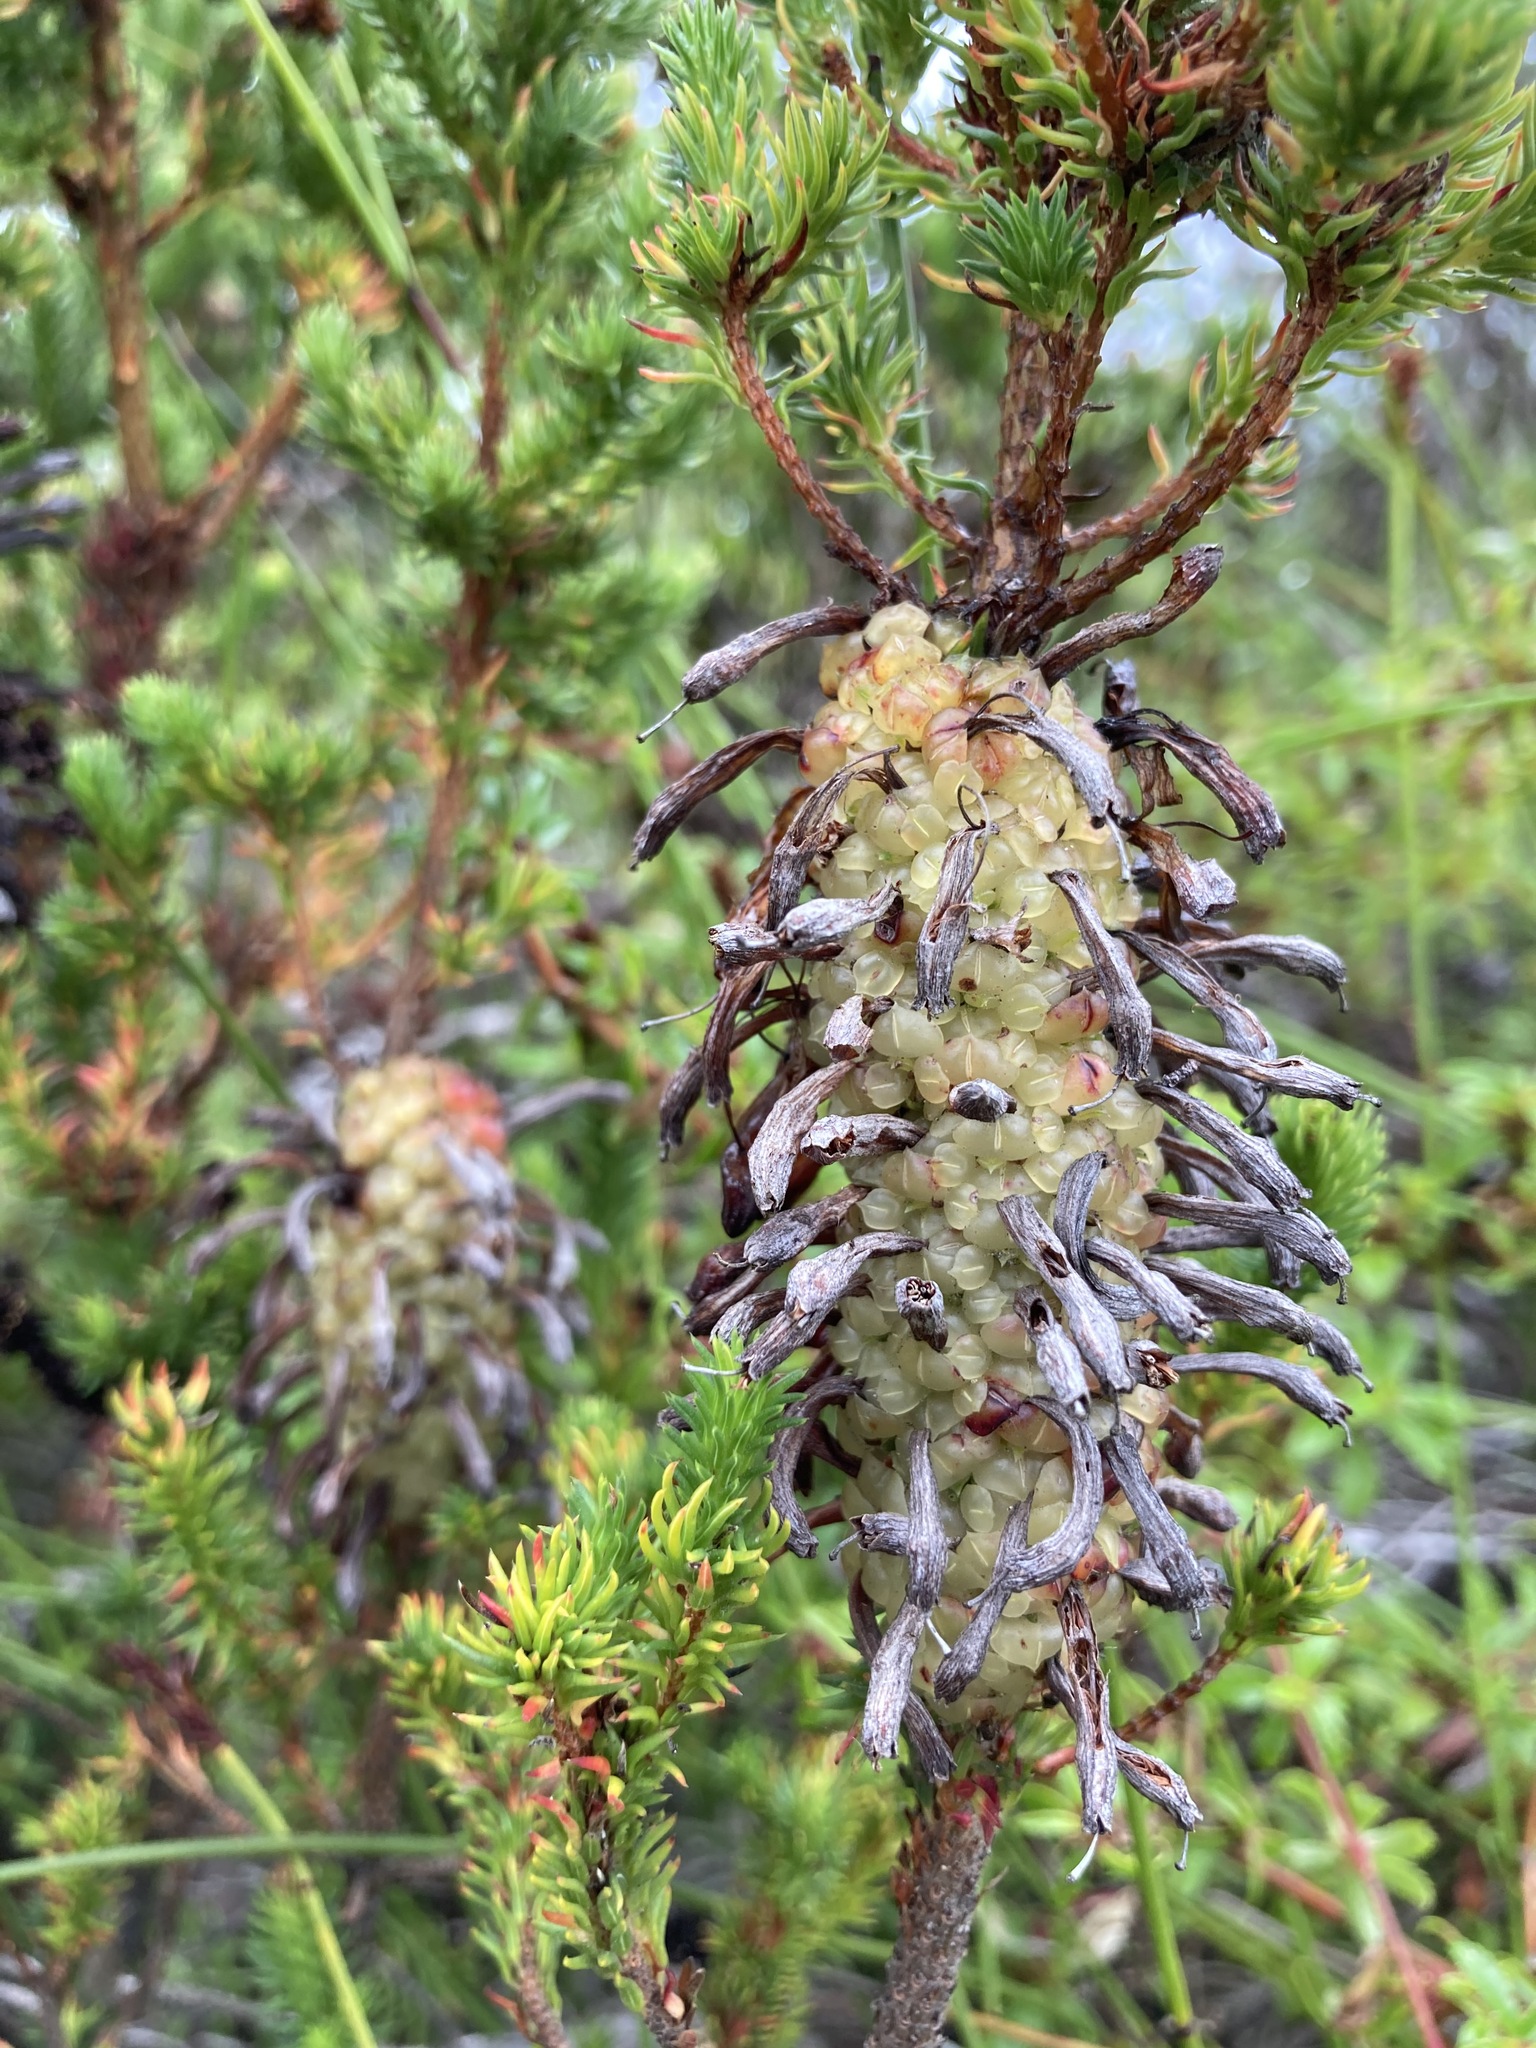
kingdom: Plantae
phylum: Tracheophyta
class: Magnoliopsida
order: Ericales
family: Ericaceae
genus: Erica
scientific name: Erica sessiliflora
